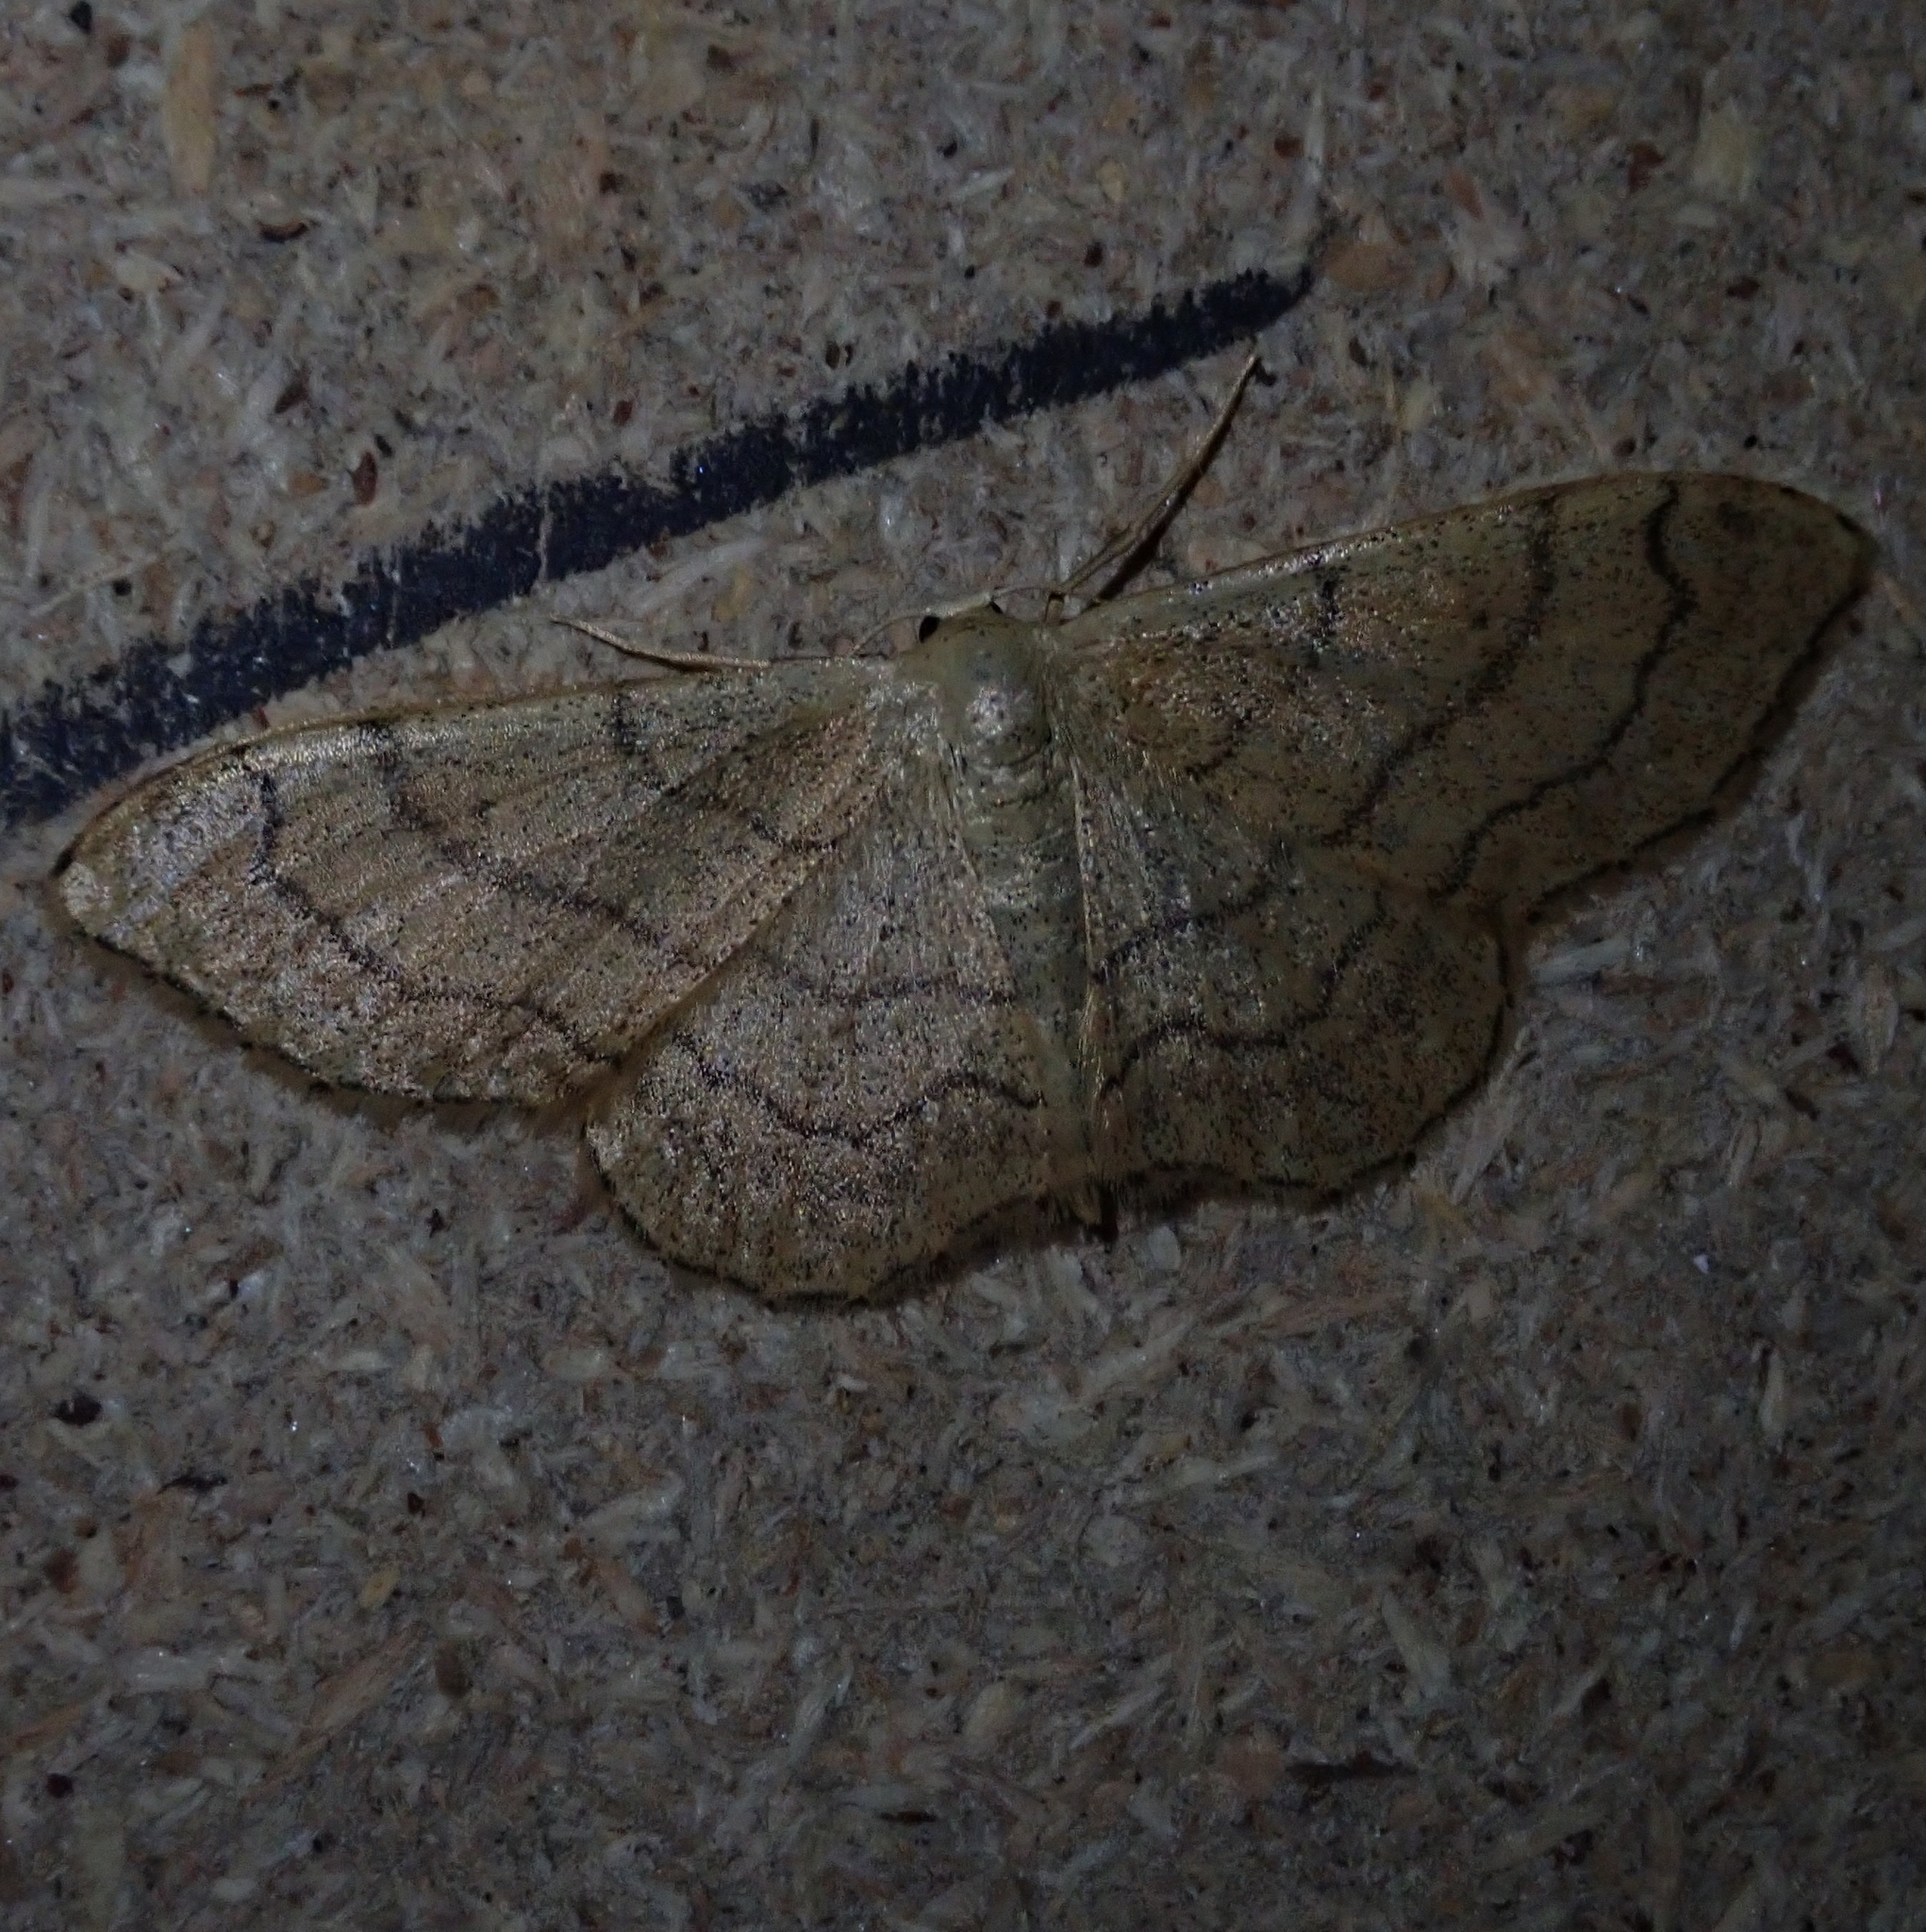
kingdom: Animalia
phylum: Arthropoda
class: Insecta
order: Lepidoptera
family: Geometridae
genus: Idaea
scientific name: Idaea aversata
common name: Riband wave
